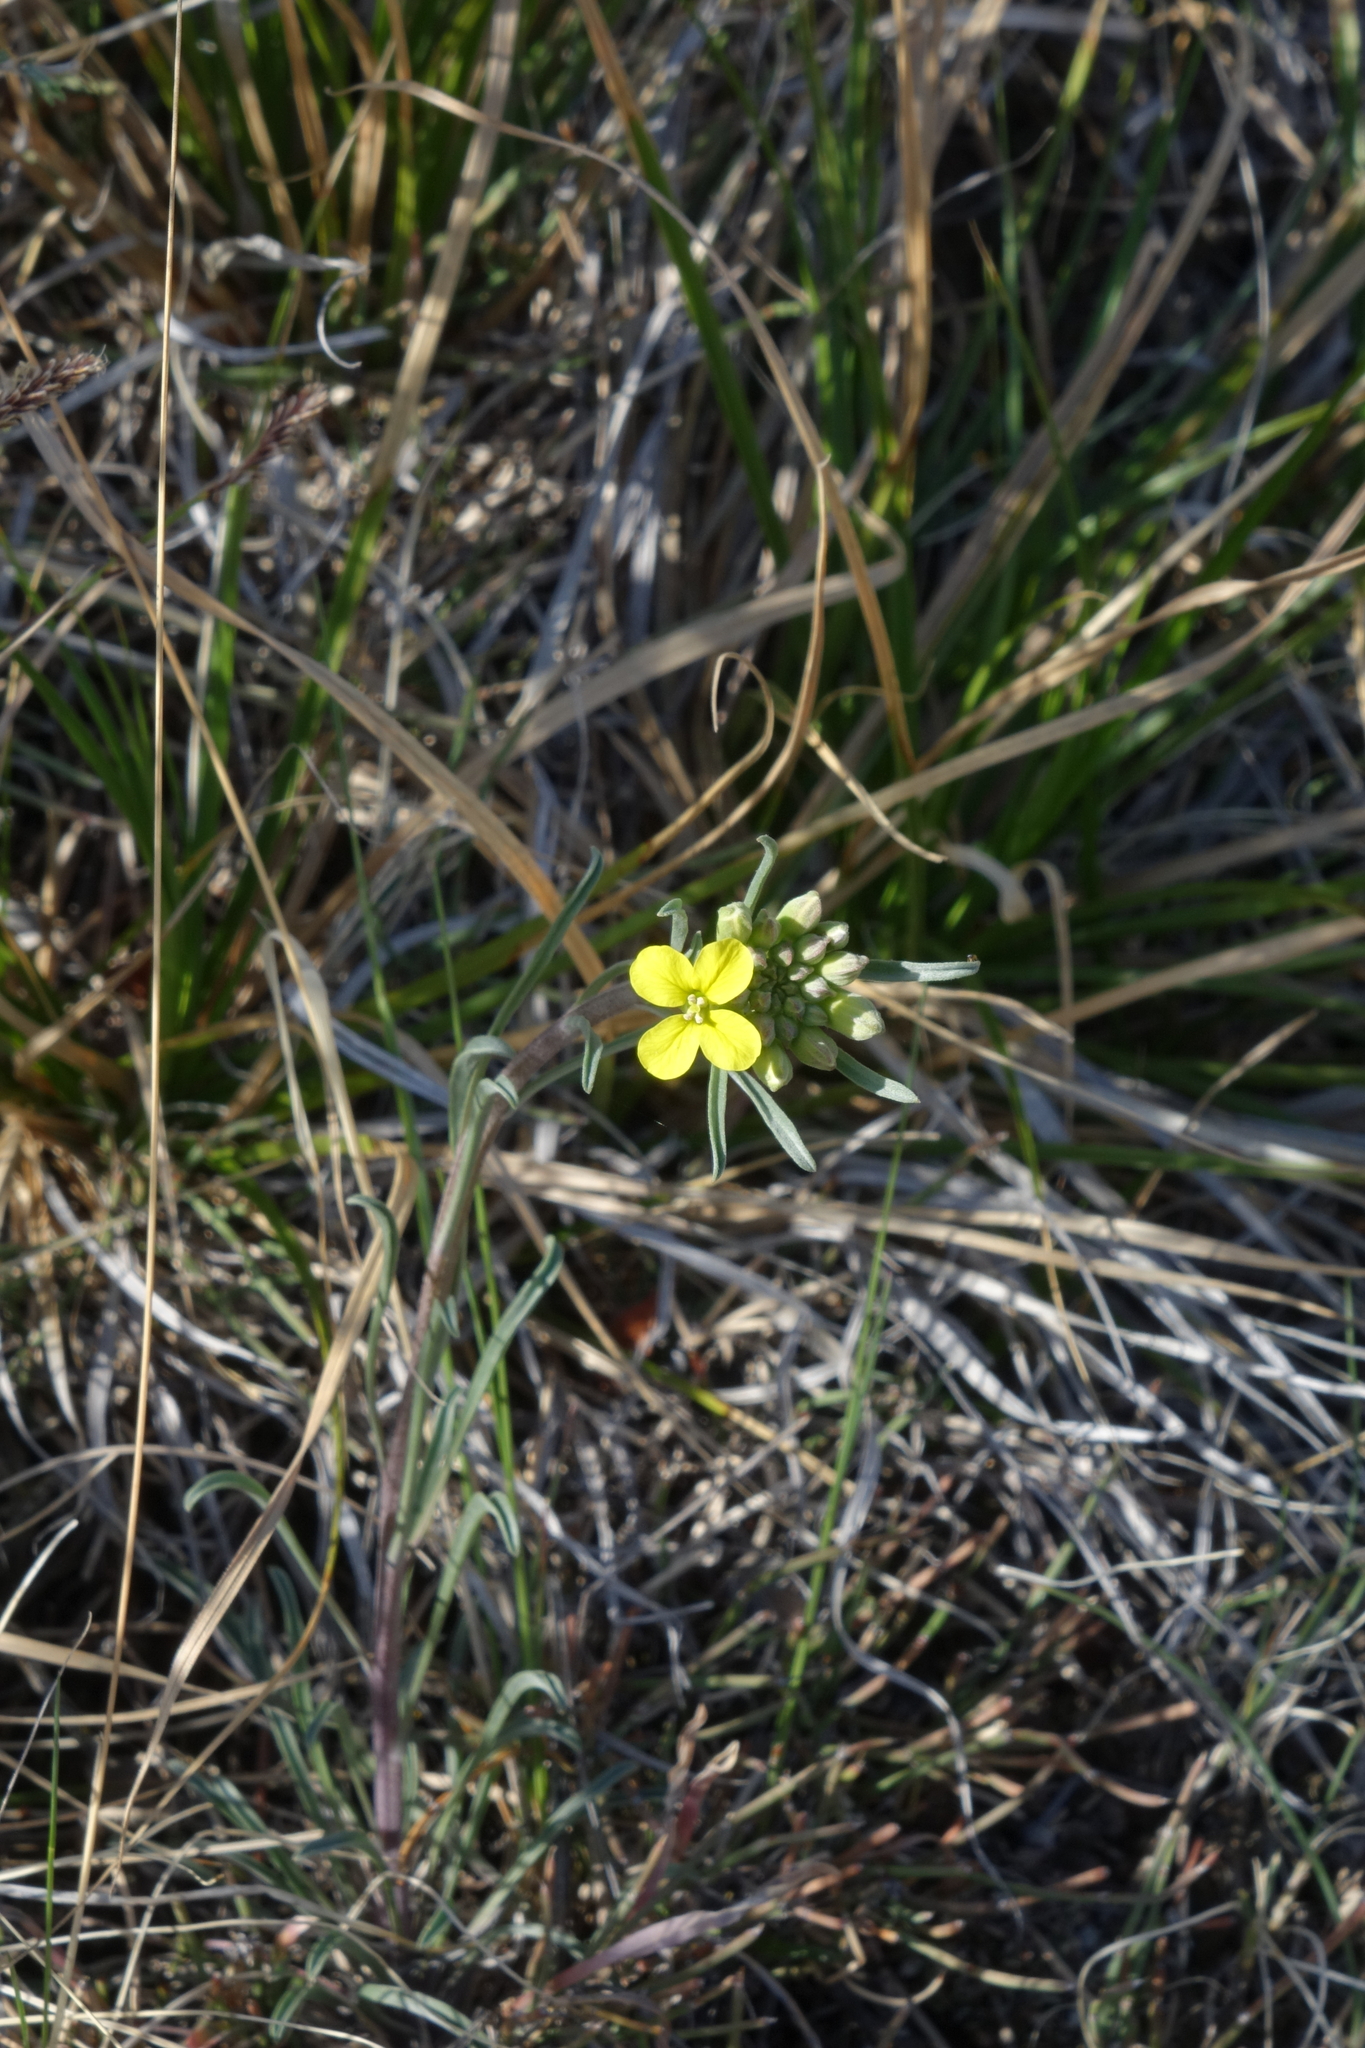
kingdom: Plantae
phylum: Tracheophyta
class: Magnoliopsida
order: Brassicales
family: Brassicaceae
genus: Erysimum
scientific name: Erysimum flavum
